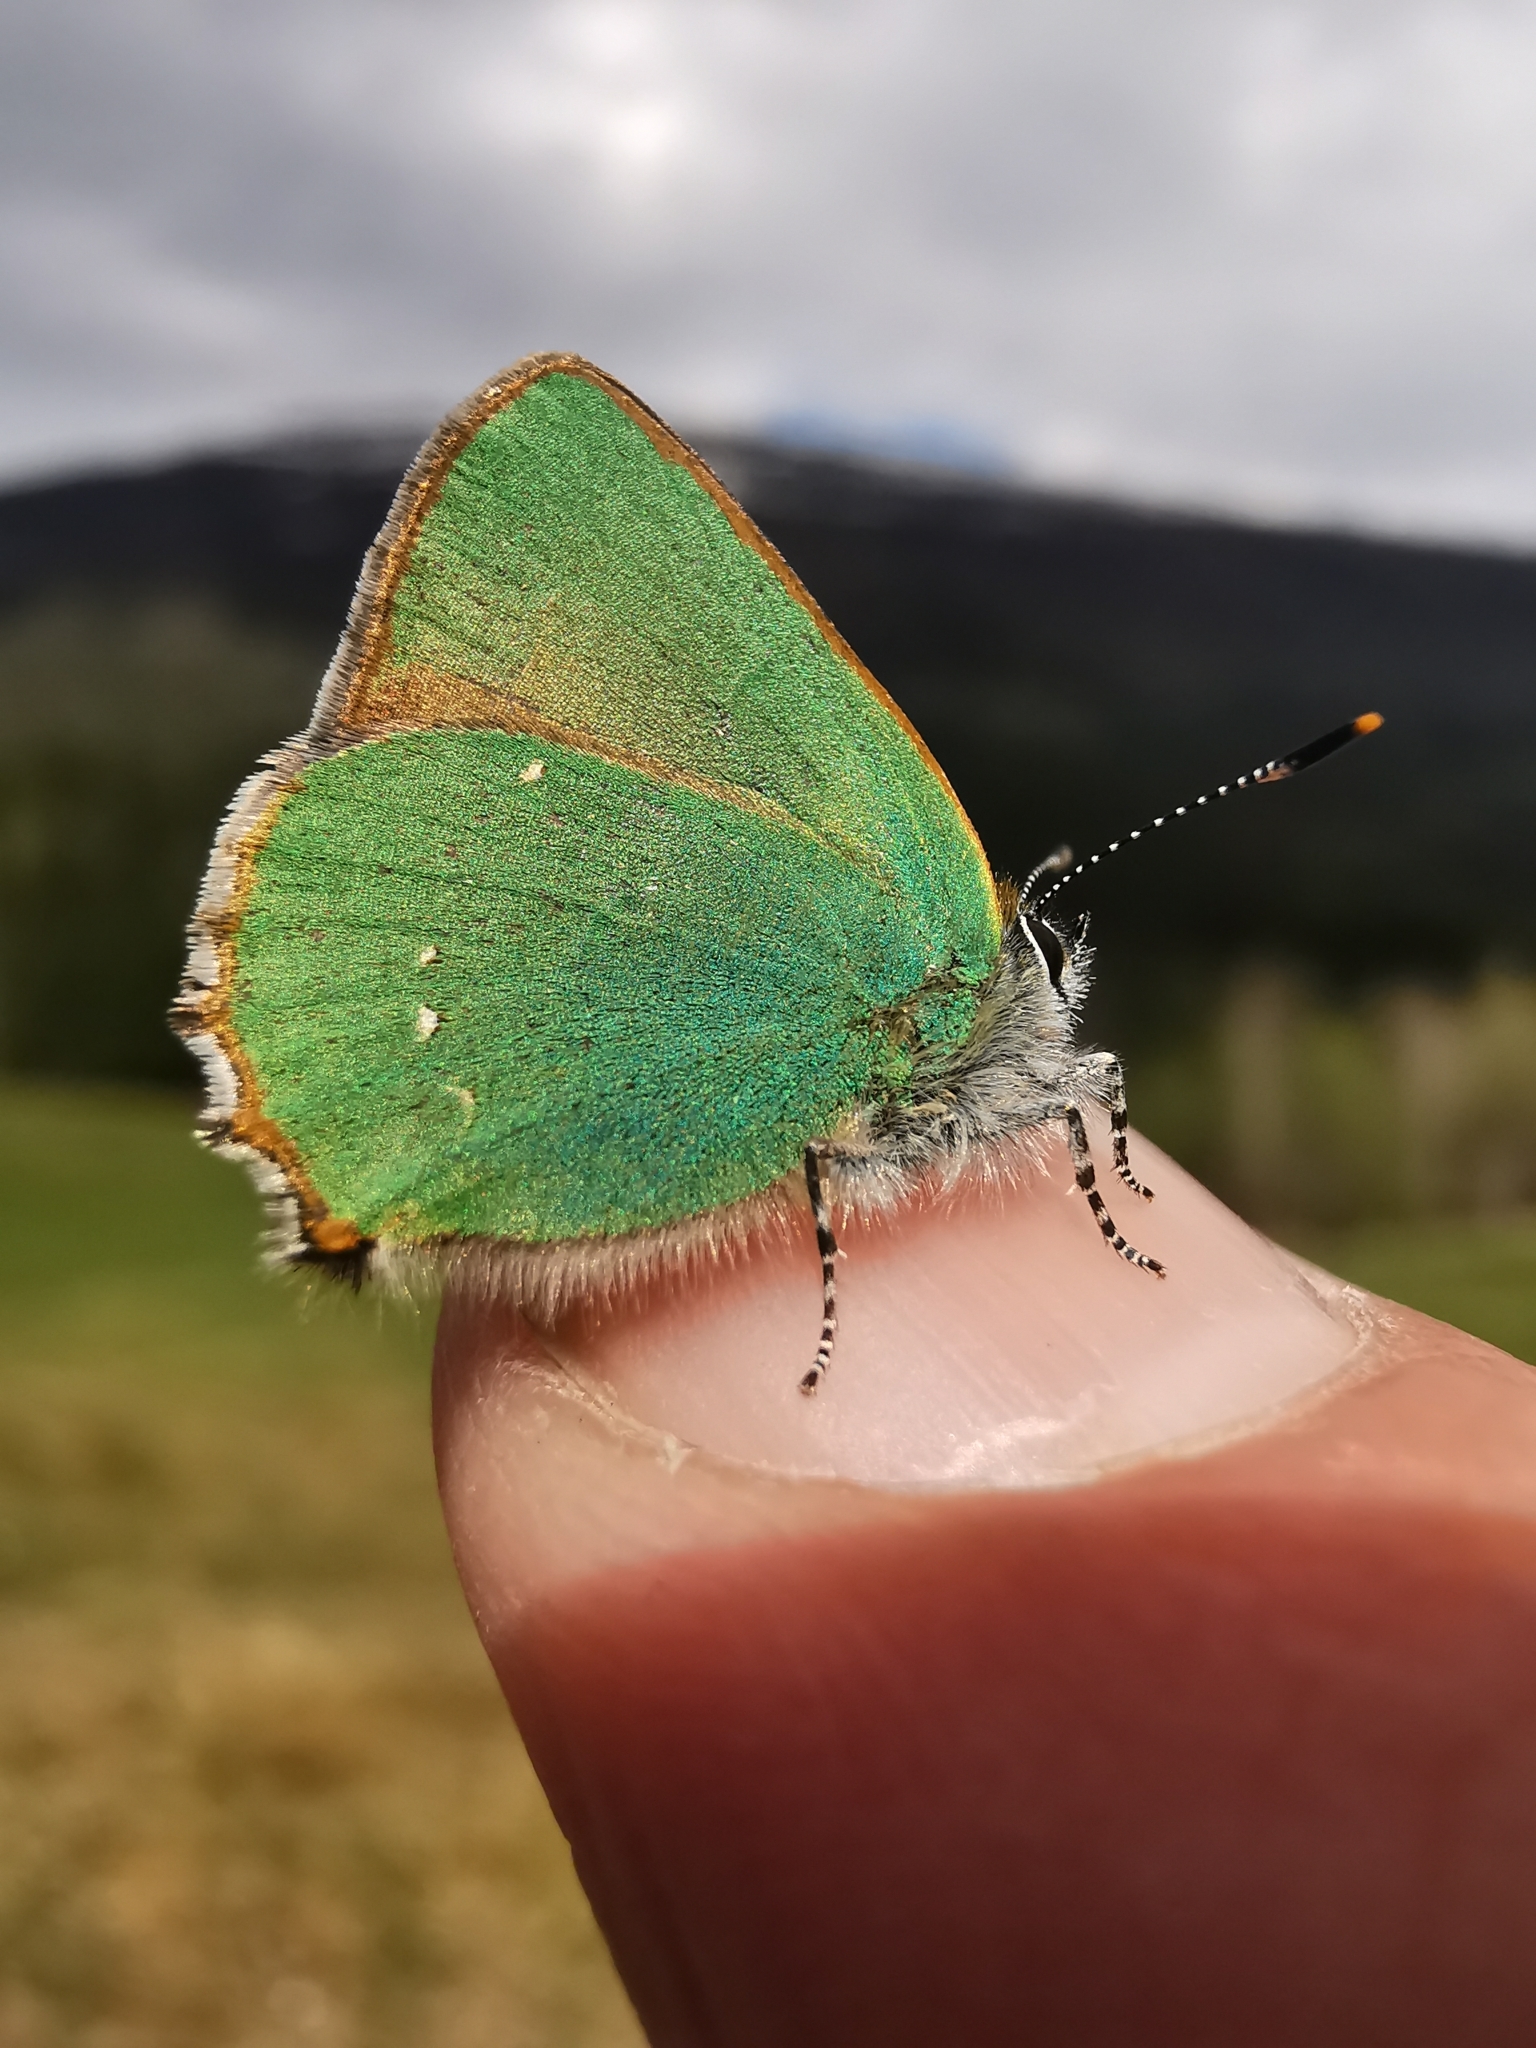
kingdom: Animalia
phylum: Arthropoda
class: Insecta
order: Lepidoptera
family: Lycaenidae
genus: Callophrys
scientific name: Callophrys rubi
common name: Green hairstreak
